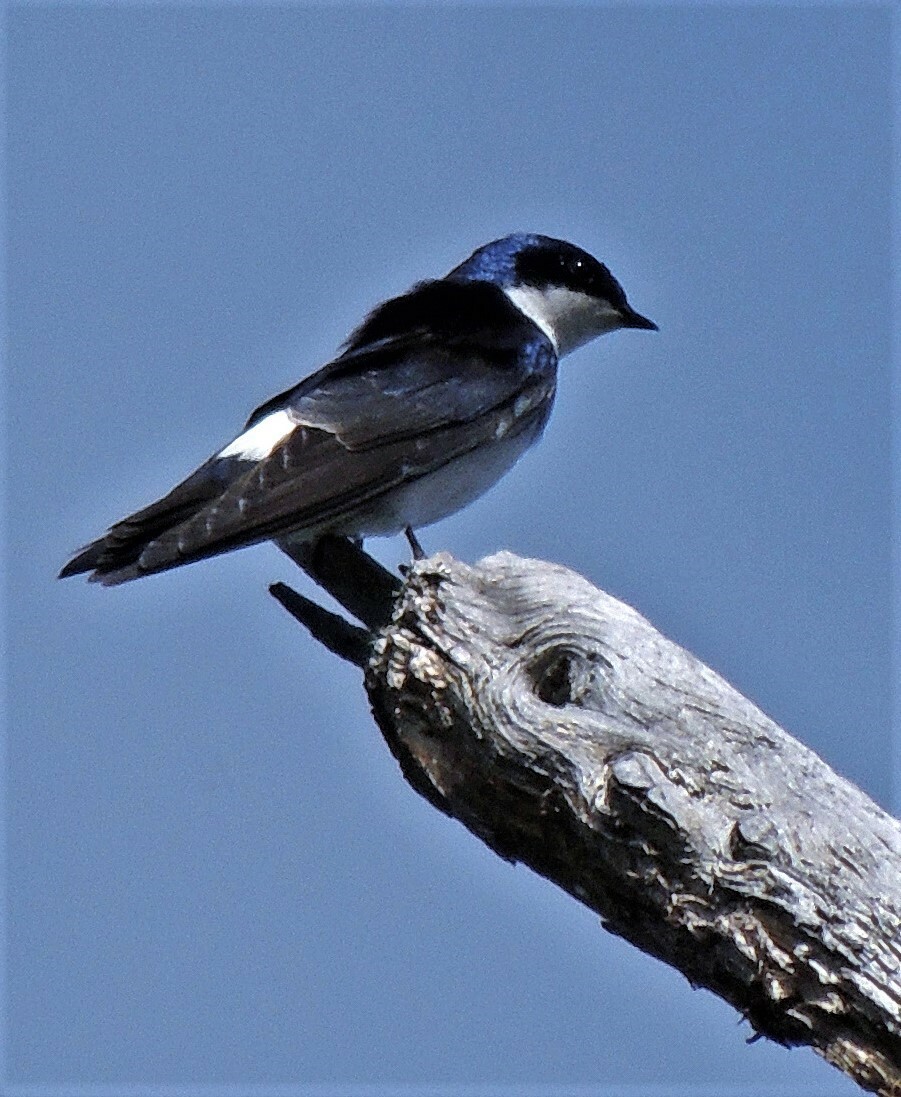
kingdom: Animalia
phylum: Chordata
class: Aves
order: Passeriformes
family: Hirundinidae
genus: Tachycineta
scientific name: Tachycineta leucopyga
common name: Chilean swallow
